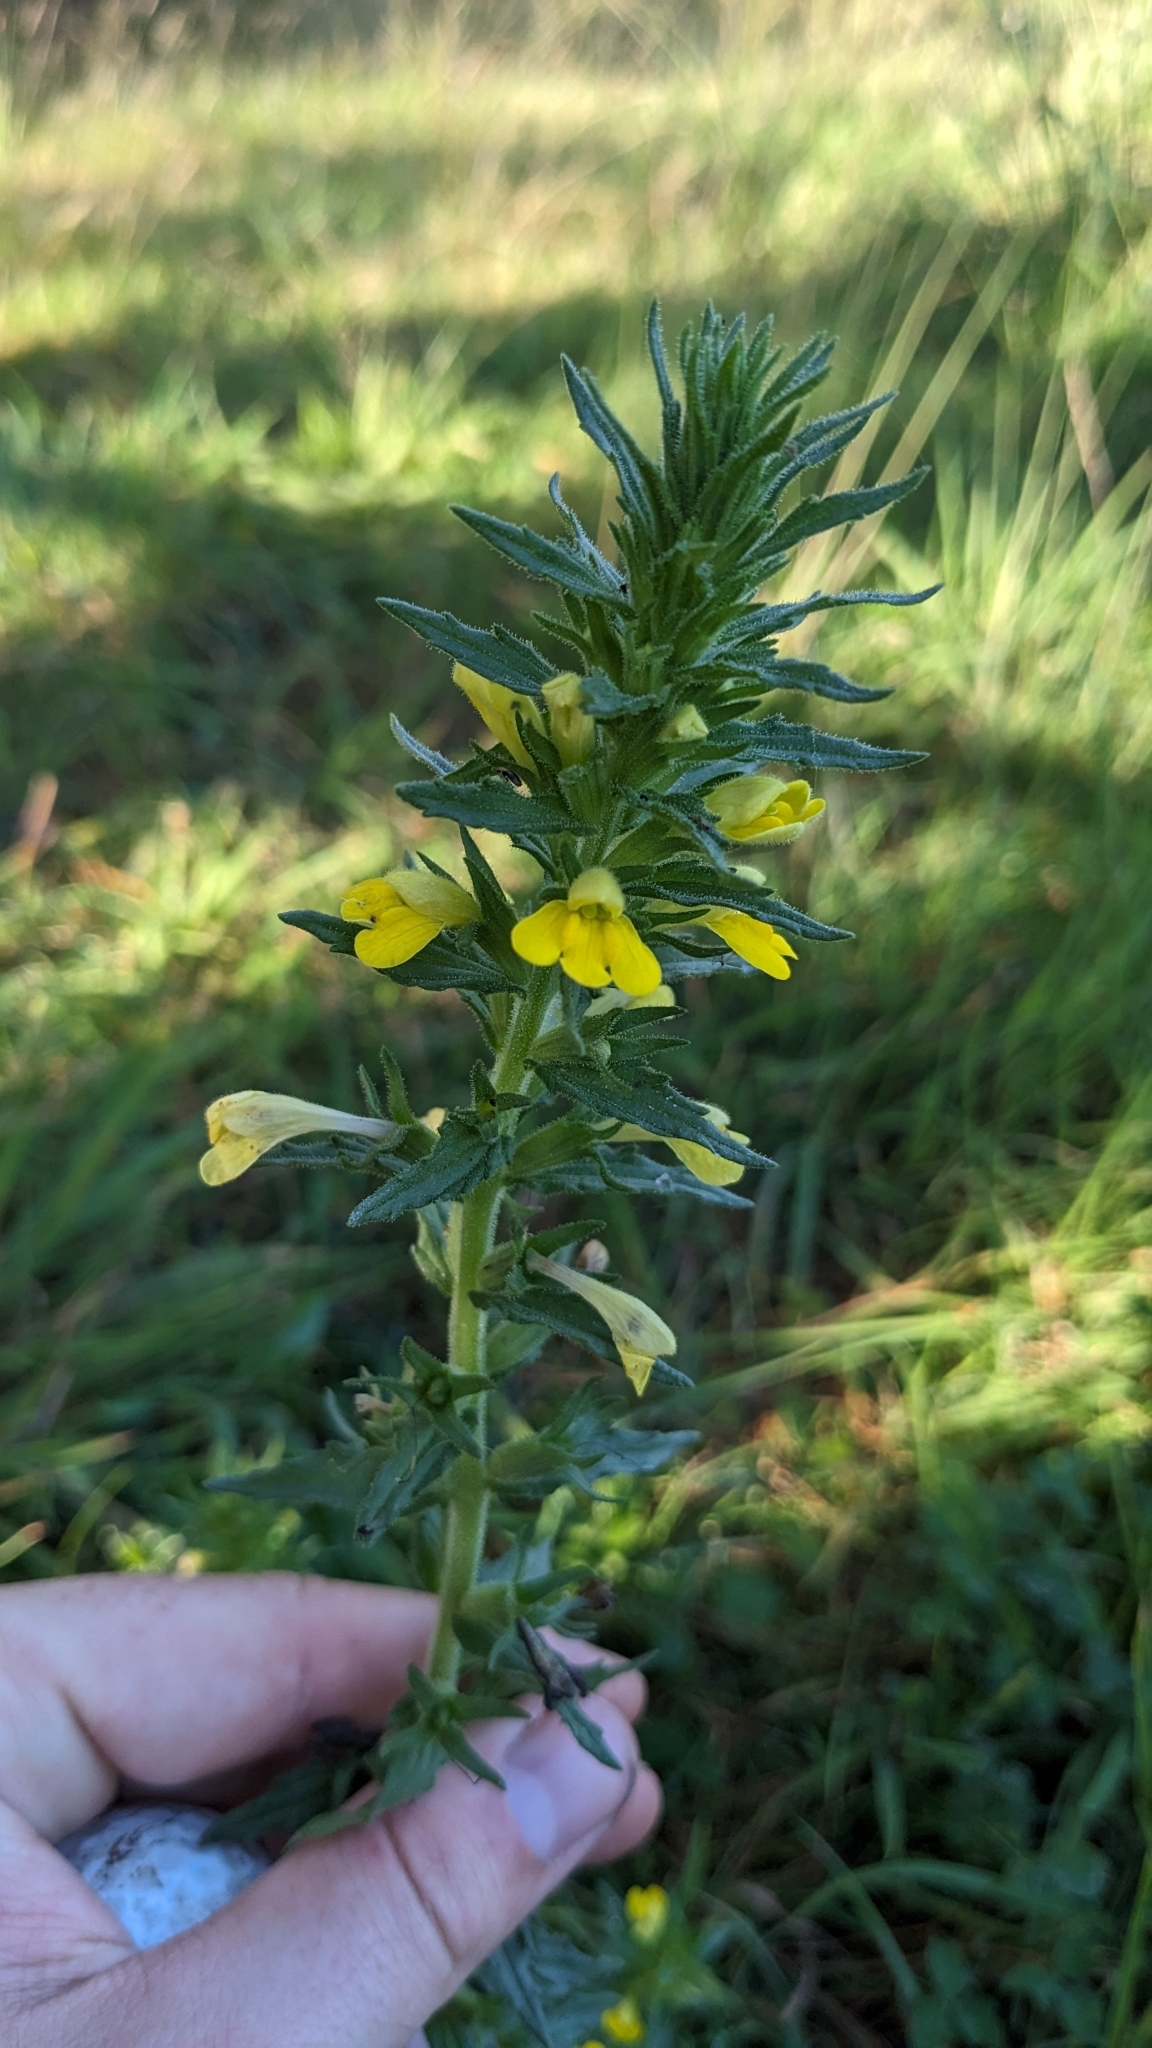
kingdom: Plantae
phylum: Tracheophyta
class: Magnoliopsida
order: Lamiales
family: Orobanchaceae
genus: Bellardia
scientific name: Bellardia viscosa
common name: Sticky parentucellia
